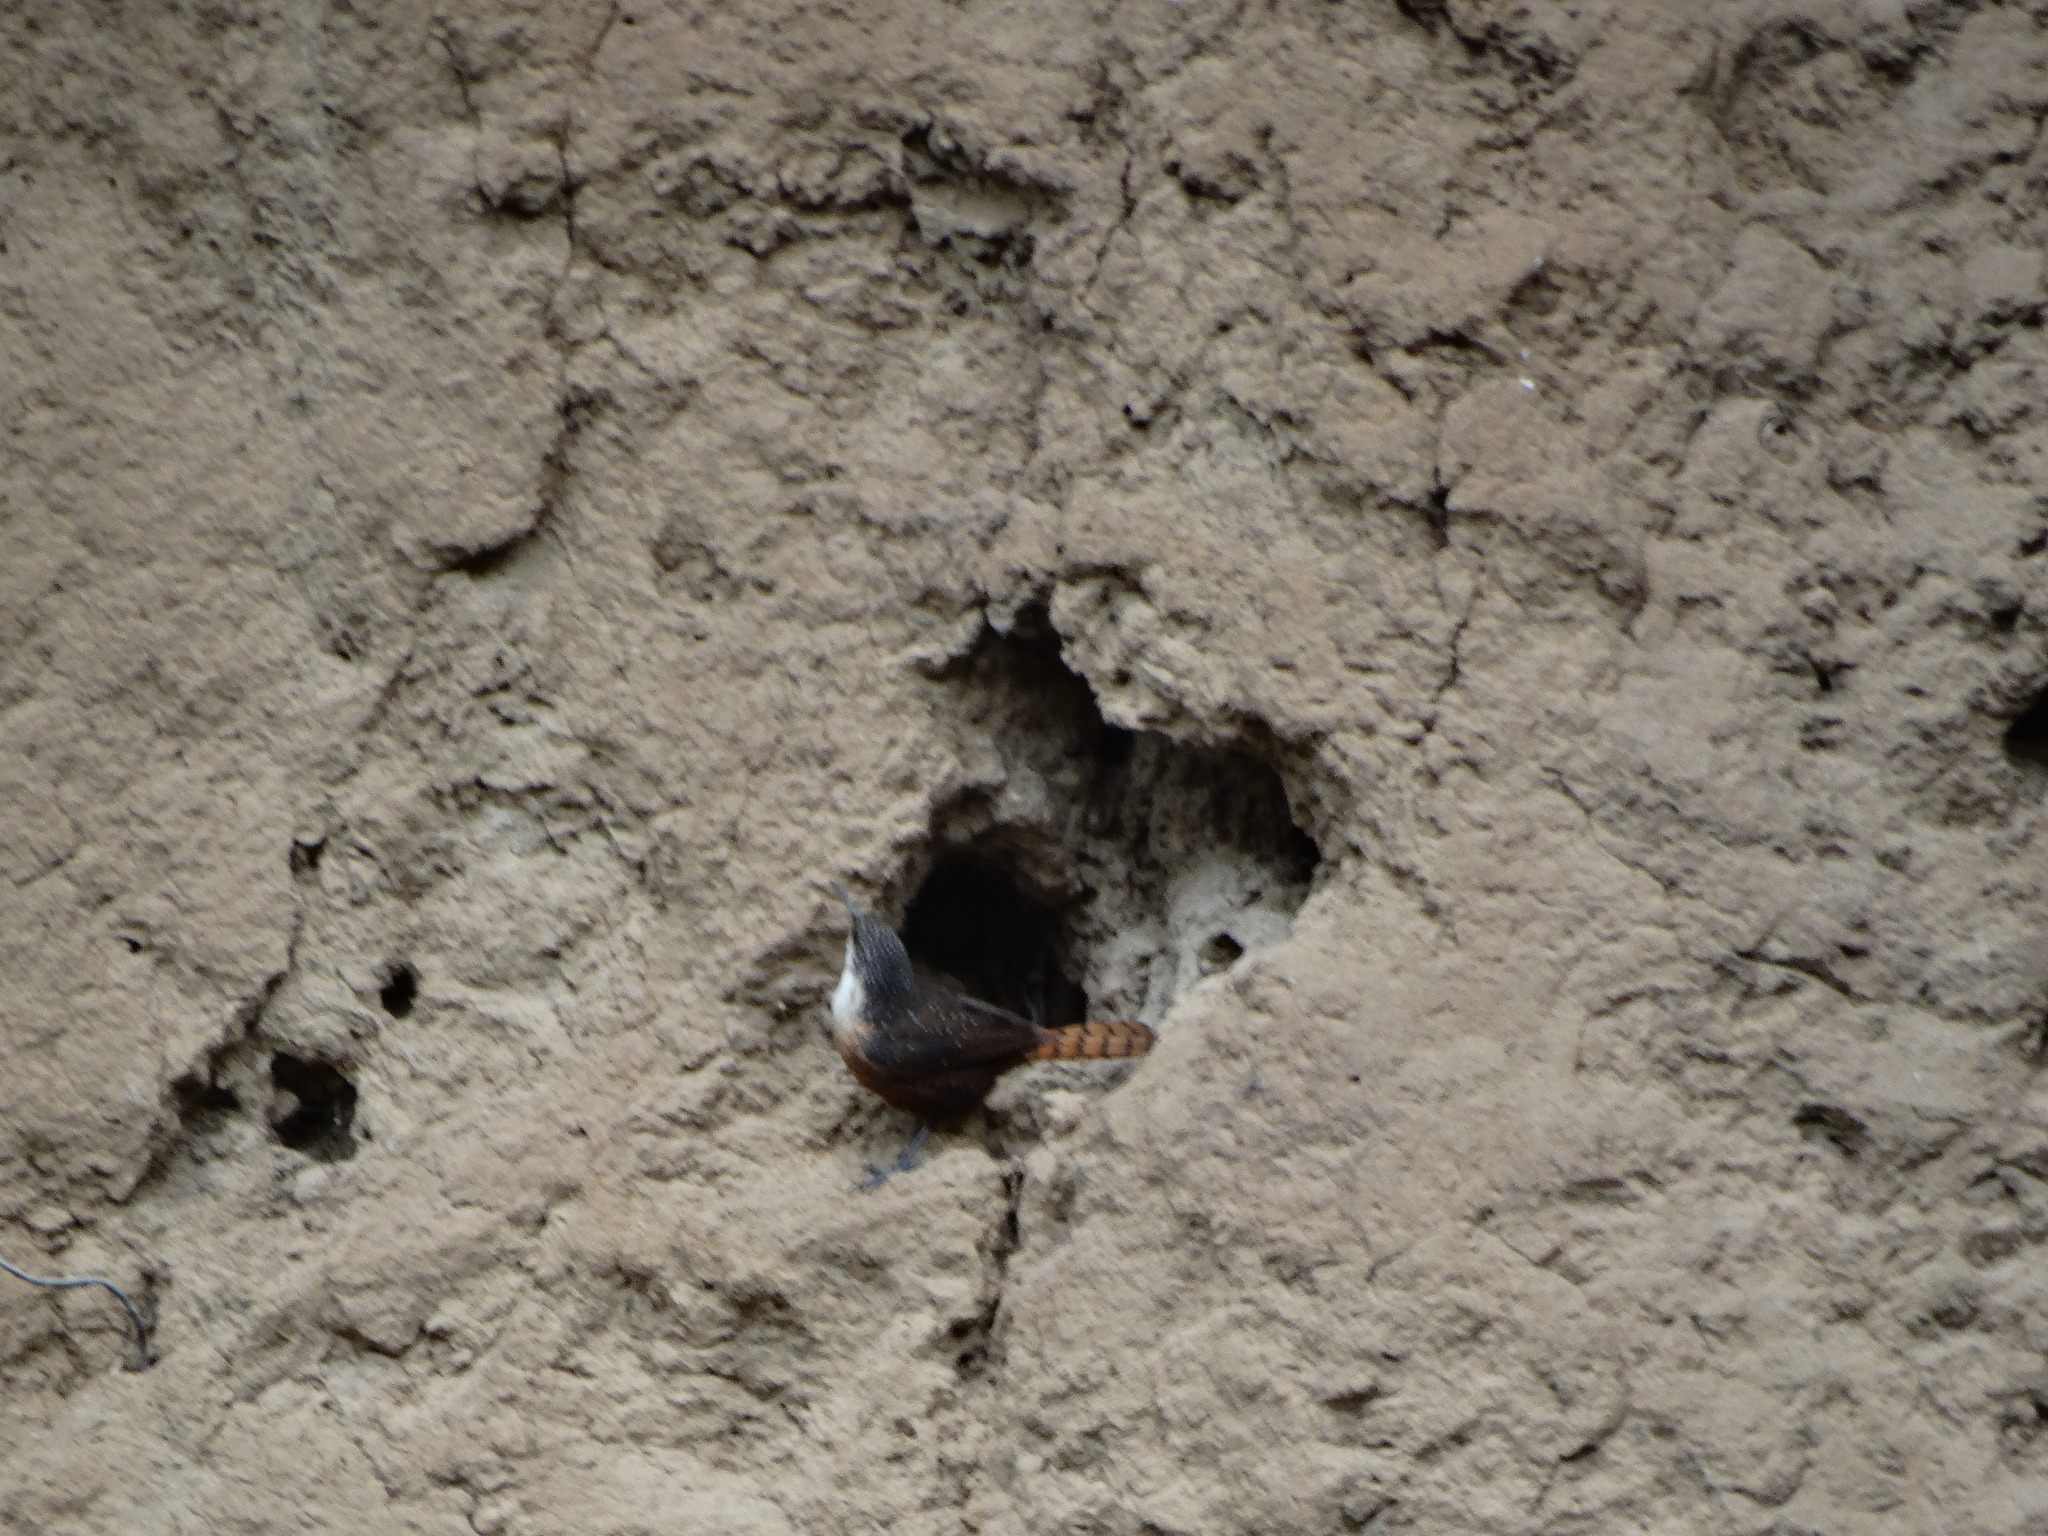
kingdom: Animalia
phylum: Chordata
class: Aves
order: Passeriformes
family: Troglodytidae
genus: Catherpes
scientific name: Catherpes mexicanus
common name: Canyon wren
